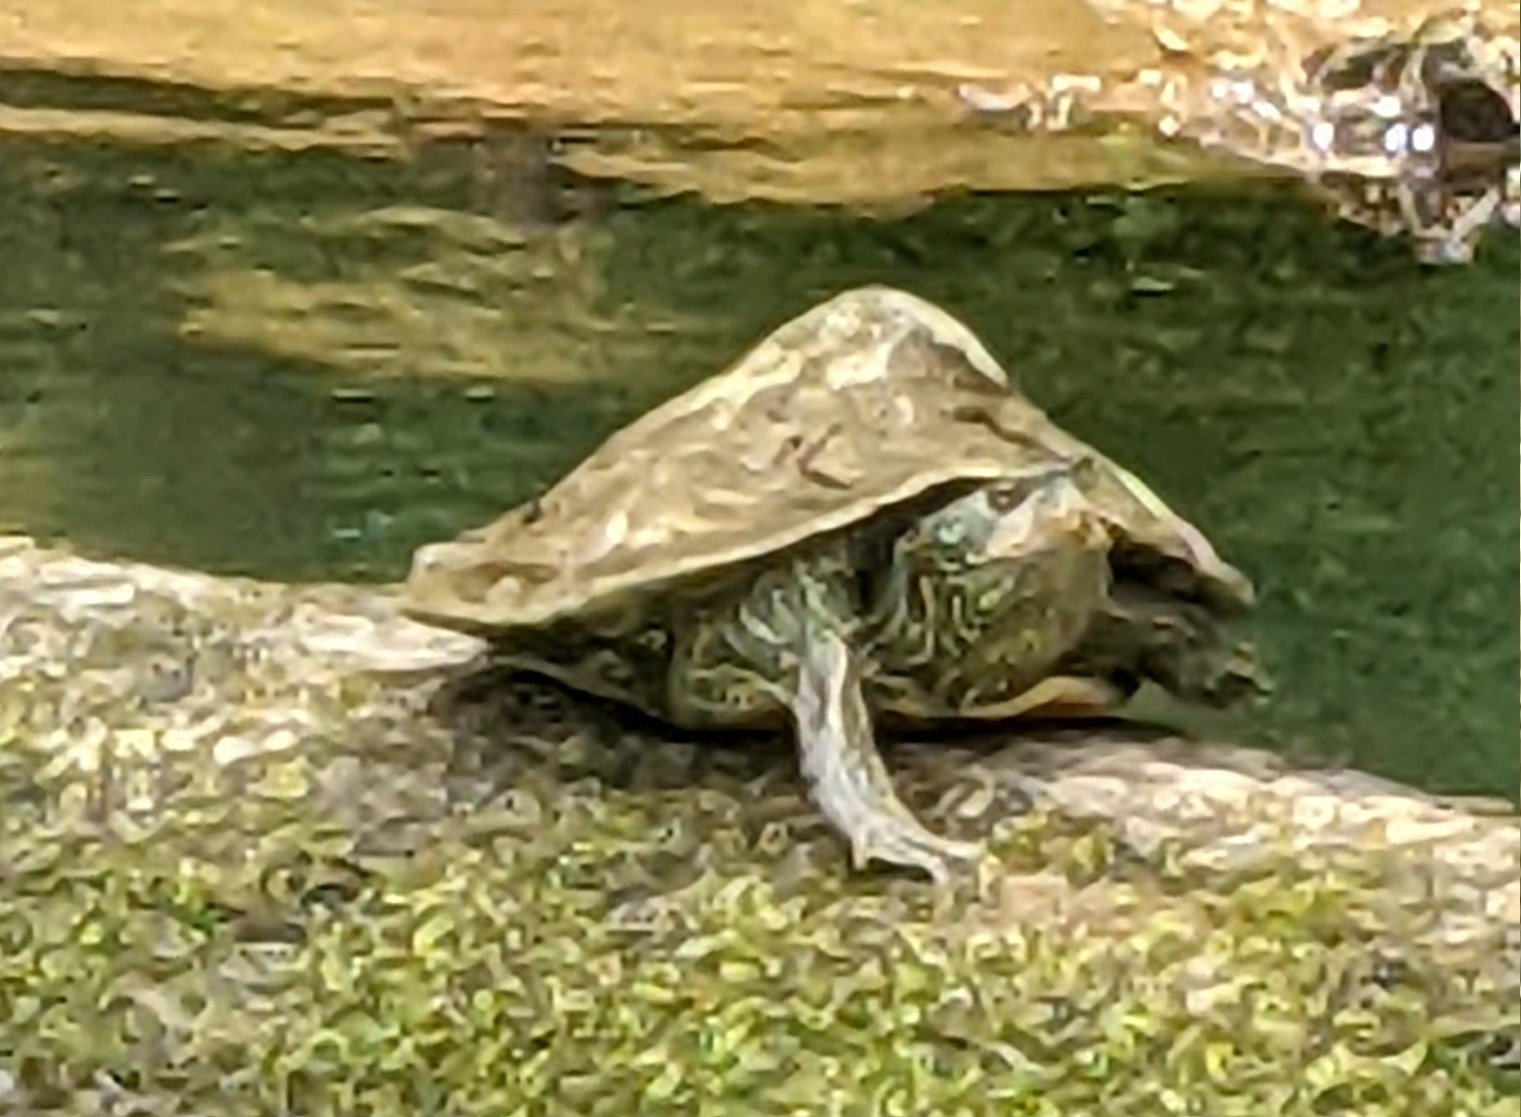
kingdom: Animalia
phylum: Chordata
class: Testudines
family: Emydidae
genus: Graptemys
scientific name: Graptemys geographica
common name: Common map turtle
